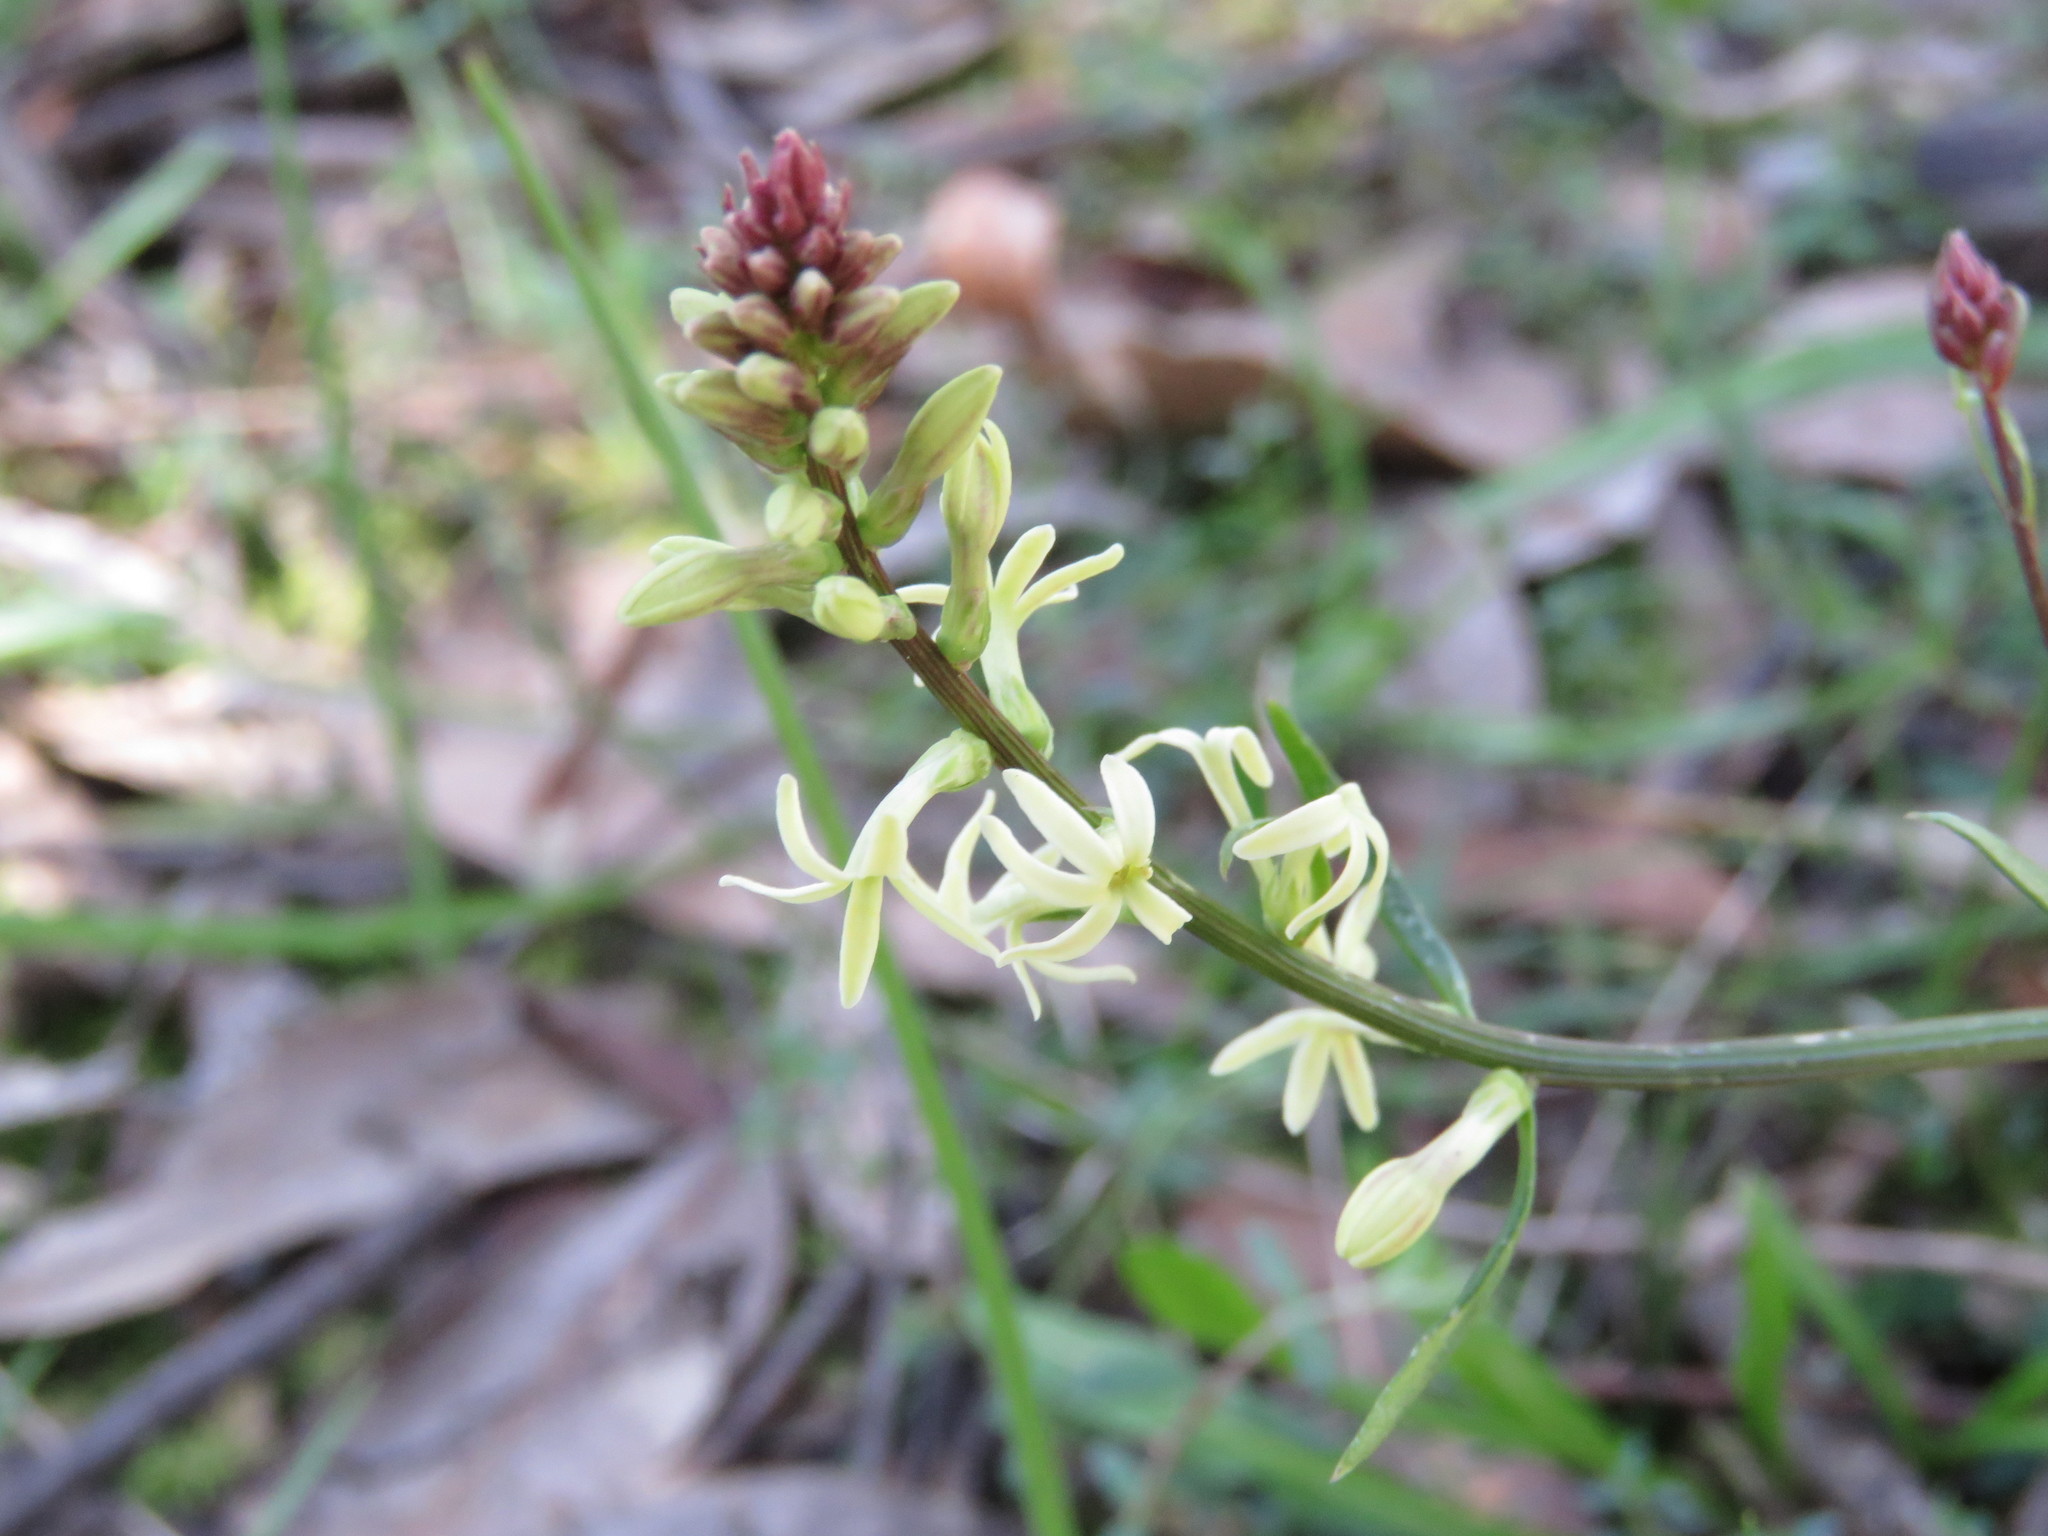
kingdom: Plantae
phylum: Tracheophyta
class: Magnoliopsida
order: Celastrales
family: Celastraceae
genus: Stackhousia
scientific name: Stackhousia monogyna
